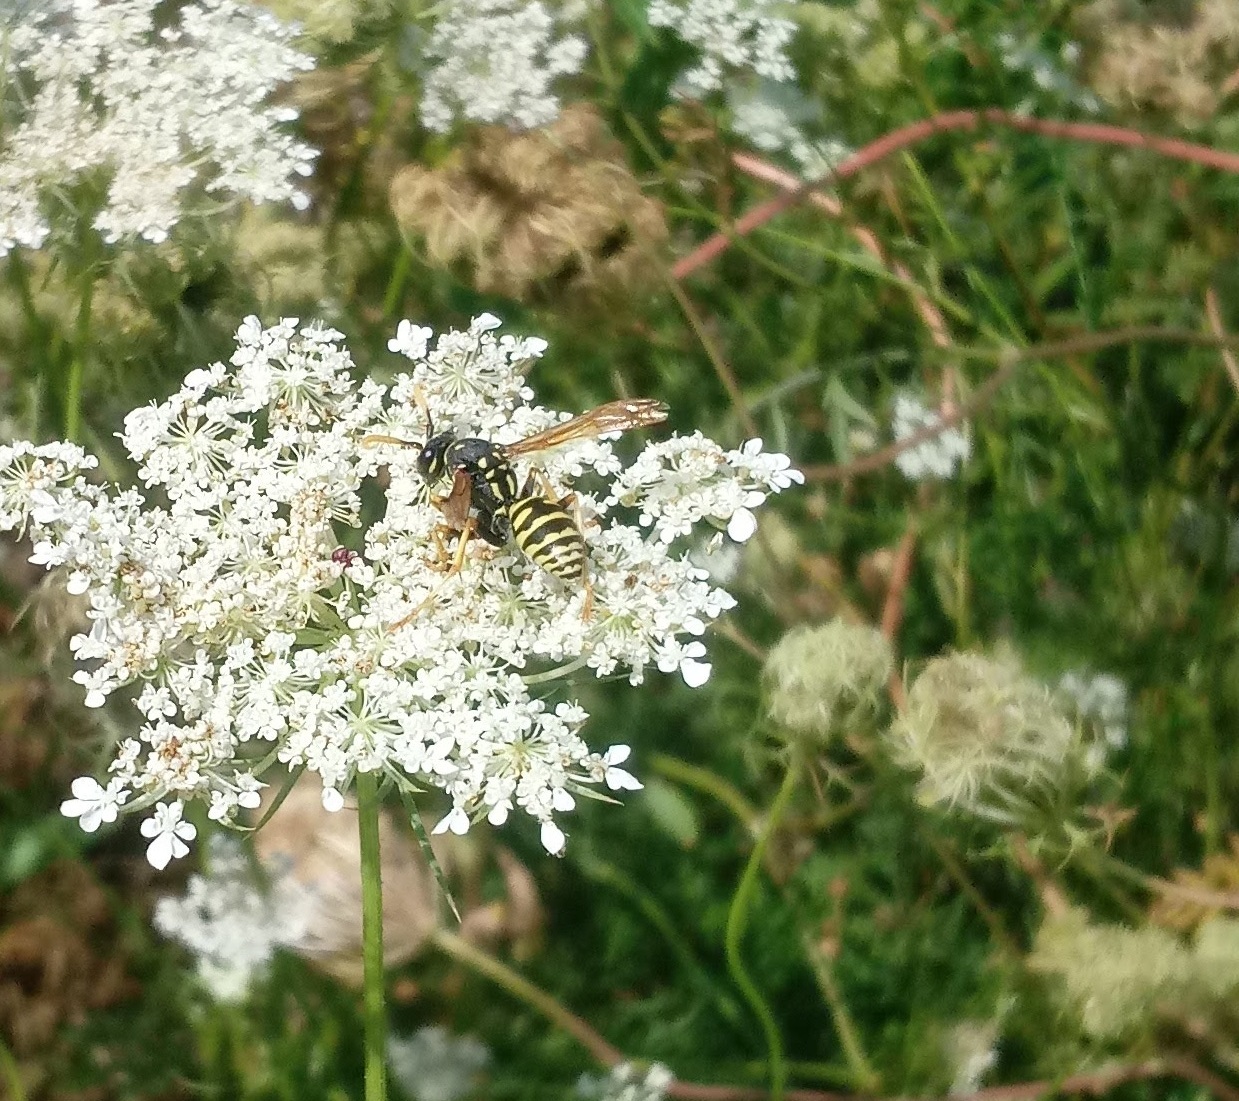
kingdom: Animalia
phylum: Arthropoda
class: Insecta
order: Hymenoptera
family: Eumenidae
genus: Polistes
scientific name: Polistes dominula
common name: Paper wasp
